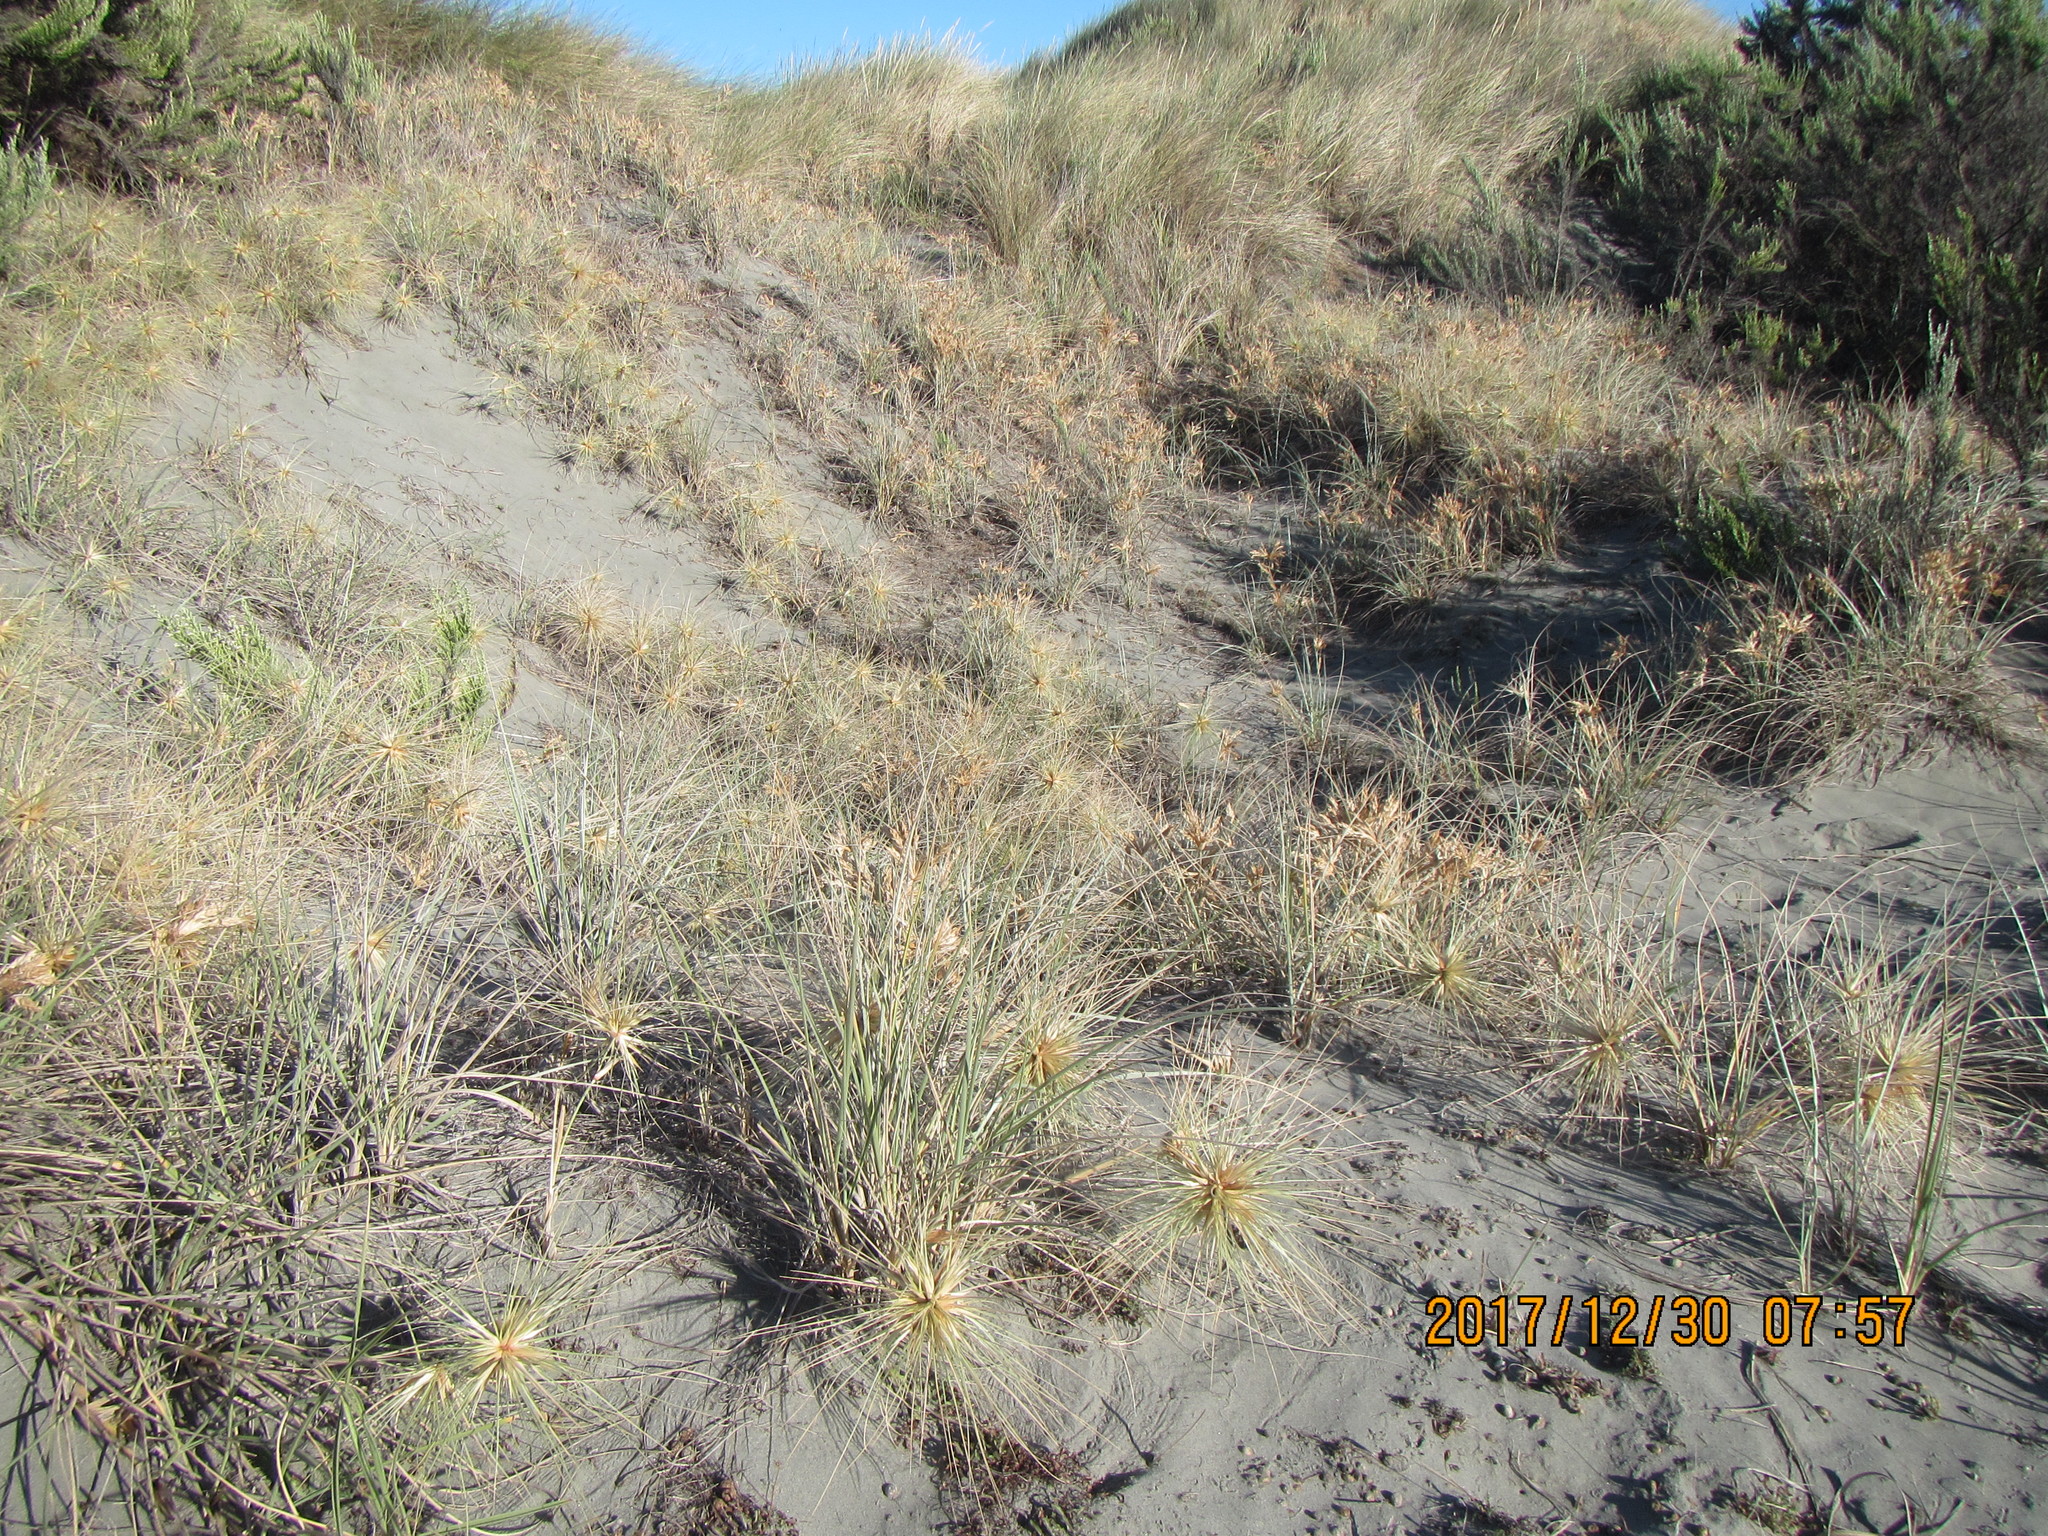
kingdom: Plantae
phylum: Tracheophyta
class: Liliopsida
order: Poales
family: Poaceae
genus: Spinifex
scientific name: Spinifex sericeus
